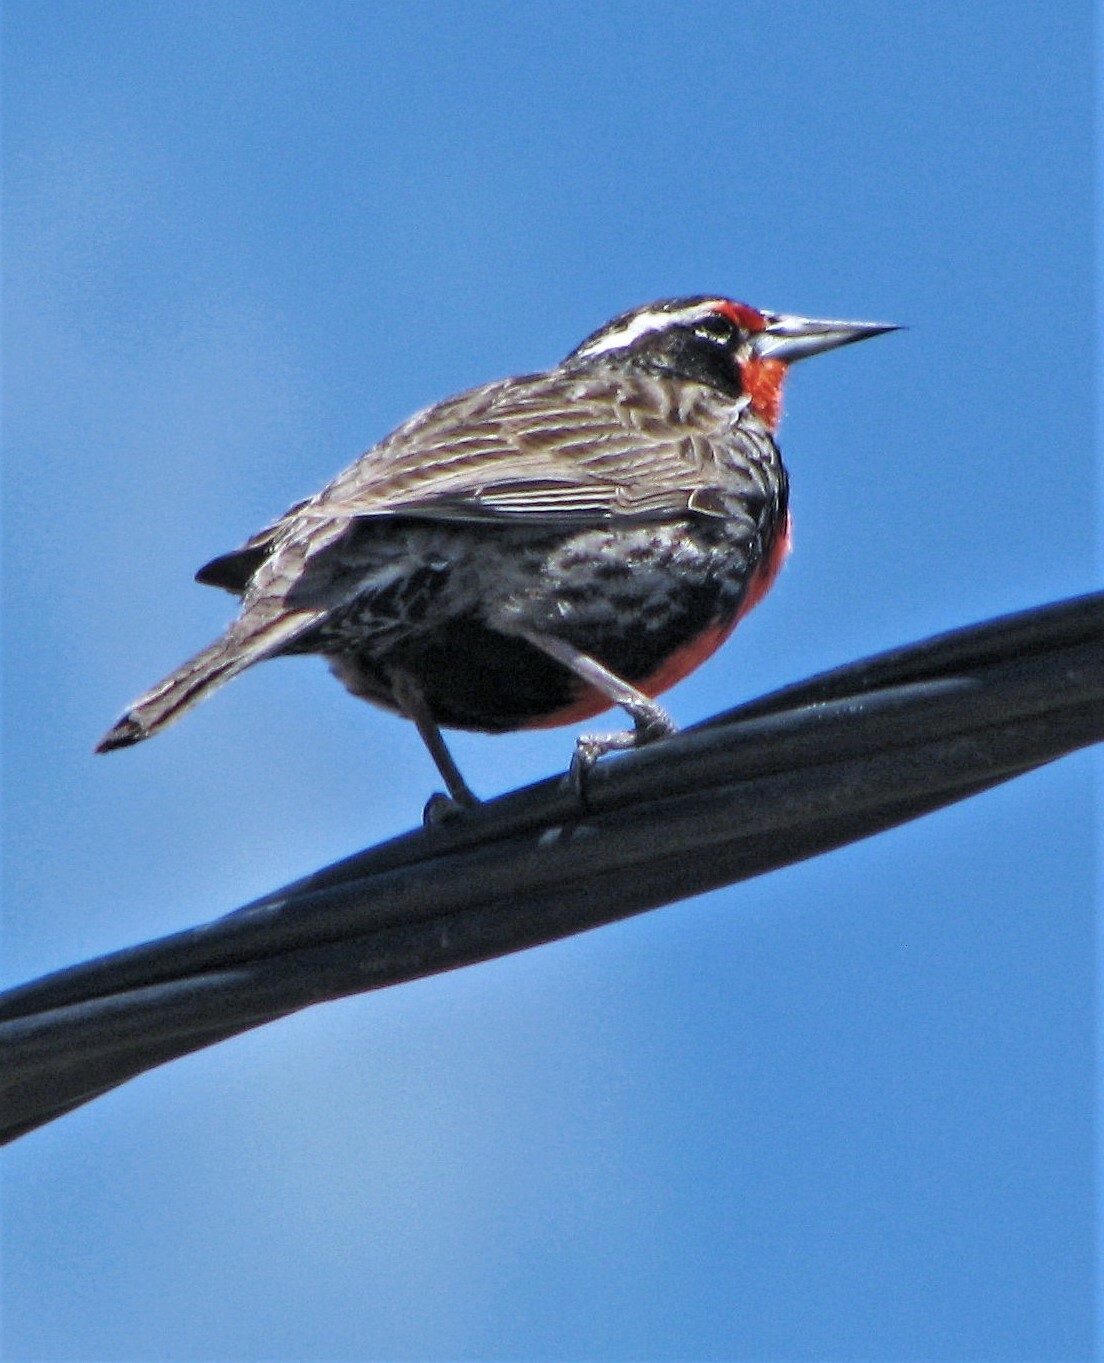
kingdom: Animalia
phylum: Chordata
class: Aves
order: Passeriformes
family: Icteridae
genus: Sturnella
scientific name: Sturnella loyca
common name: Long-tailed meadowlark
